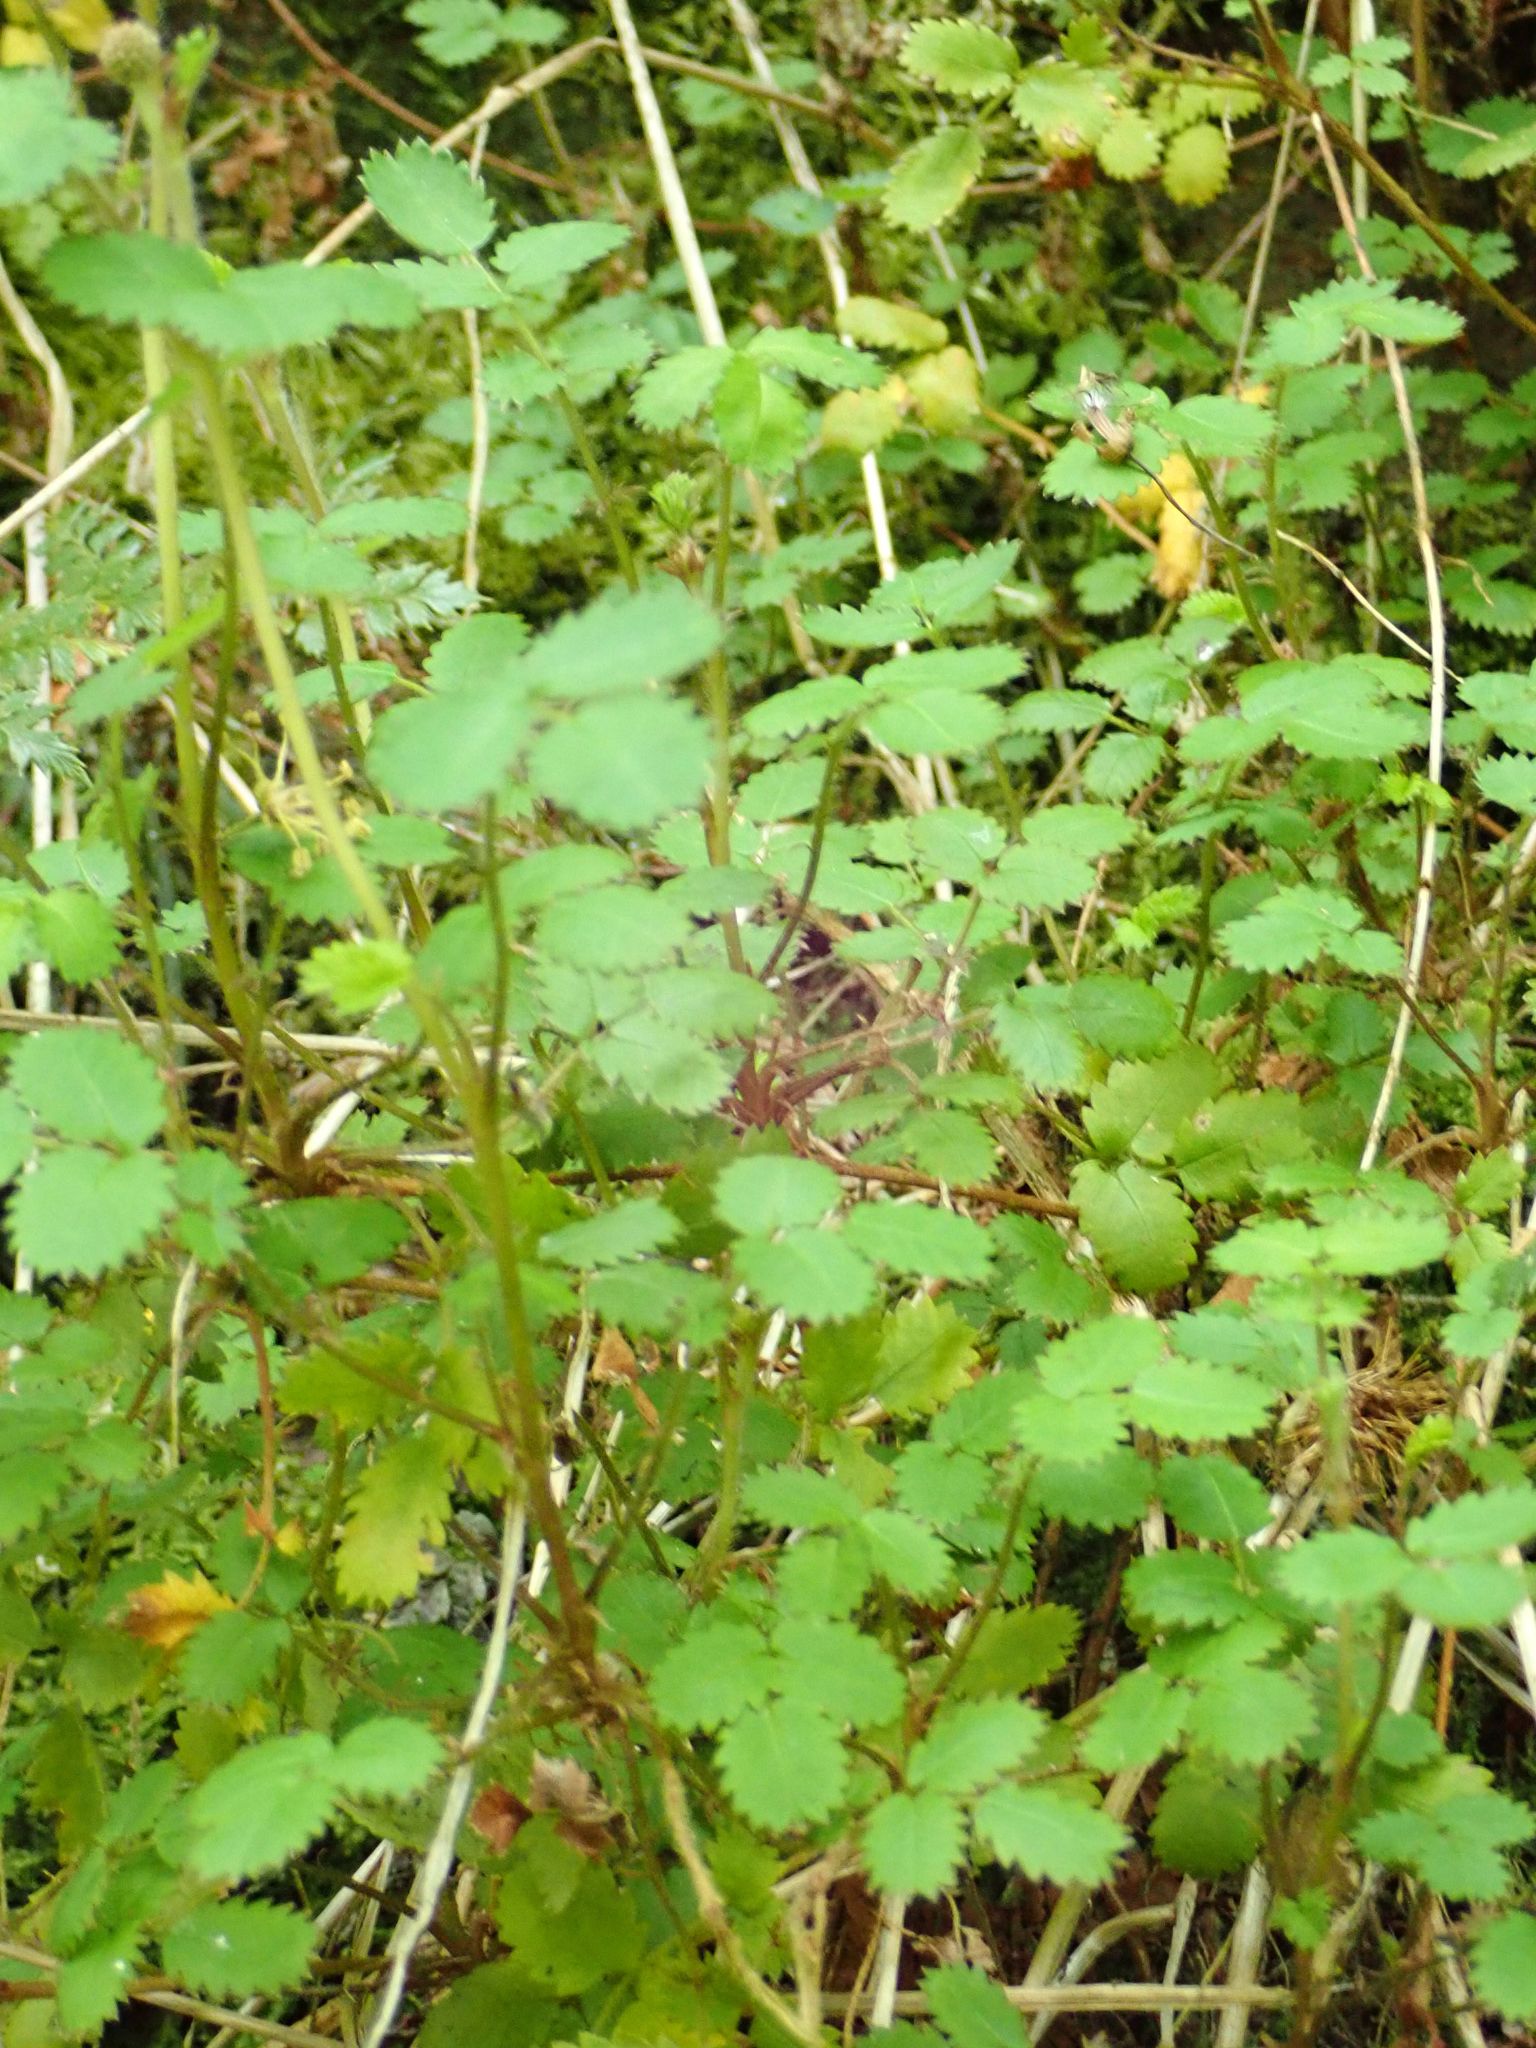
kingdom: Plantae
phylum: Tracheophyta
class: Magnoliopsida
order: Rosales
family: Rosaceae
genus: Acaena
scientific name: Acaena juvenca
